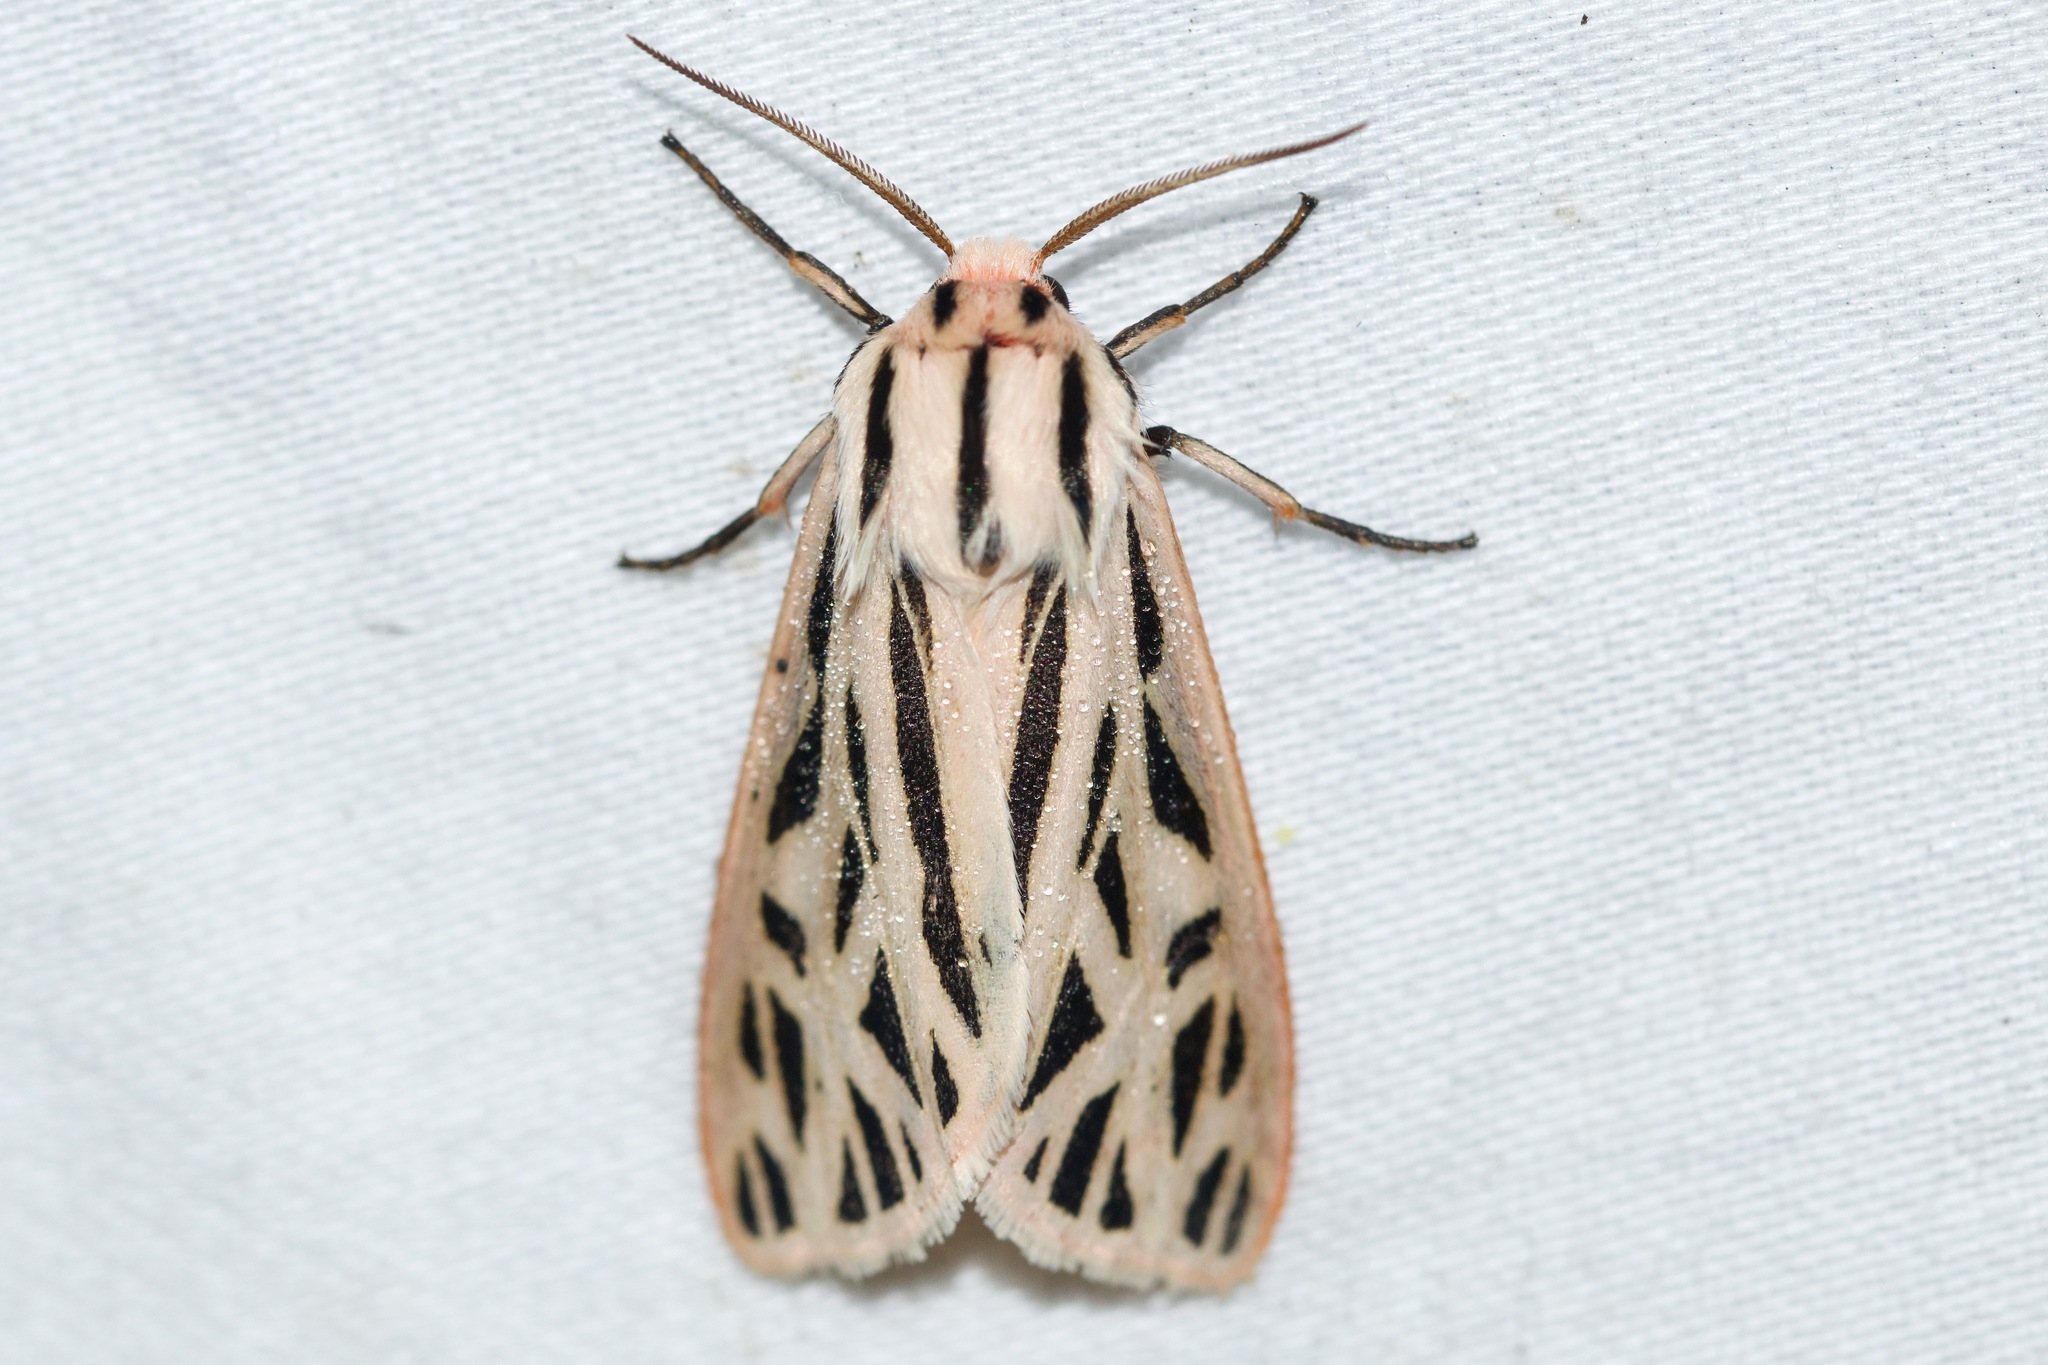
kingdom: Animalia
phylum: Arthropoda
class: Insecta
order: Lepidoptera
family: Erebidae
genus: Apantesis
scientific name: Apantesis arge
